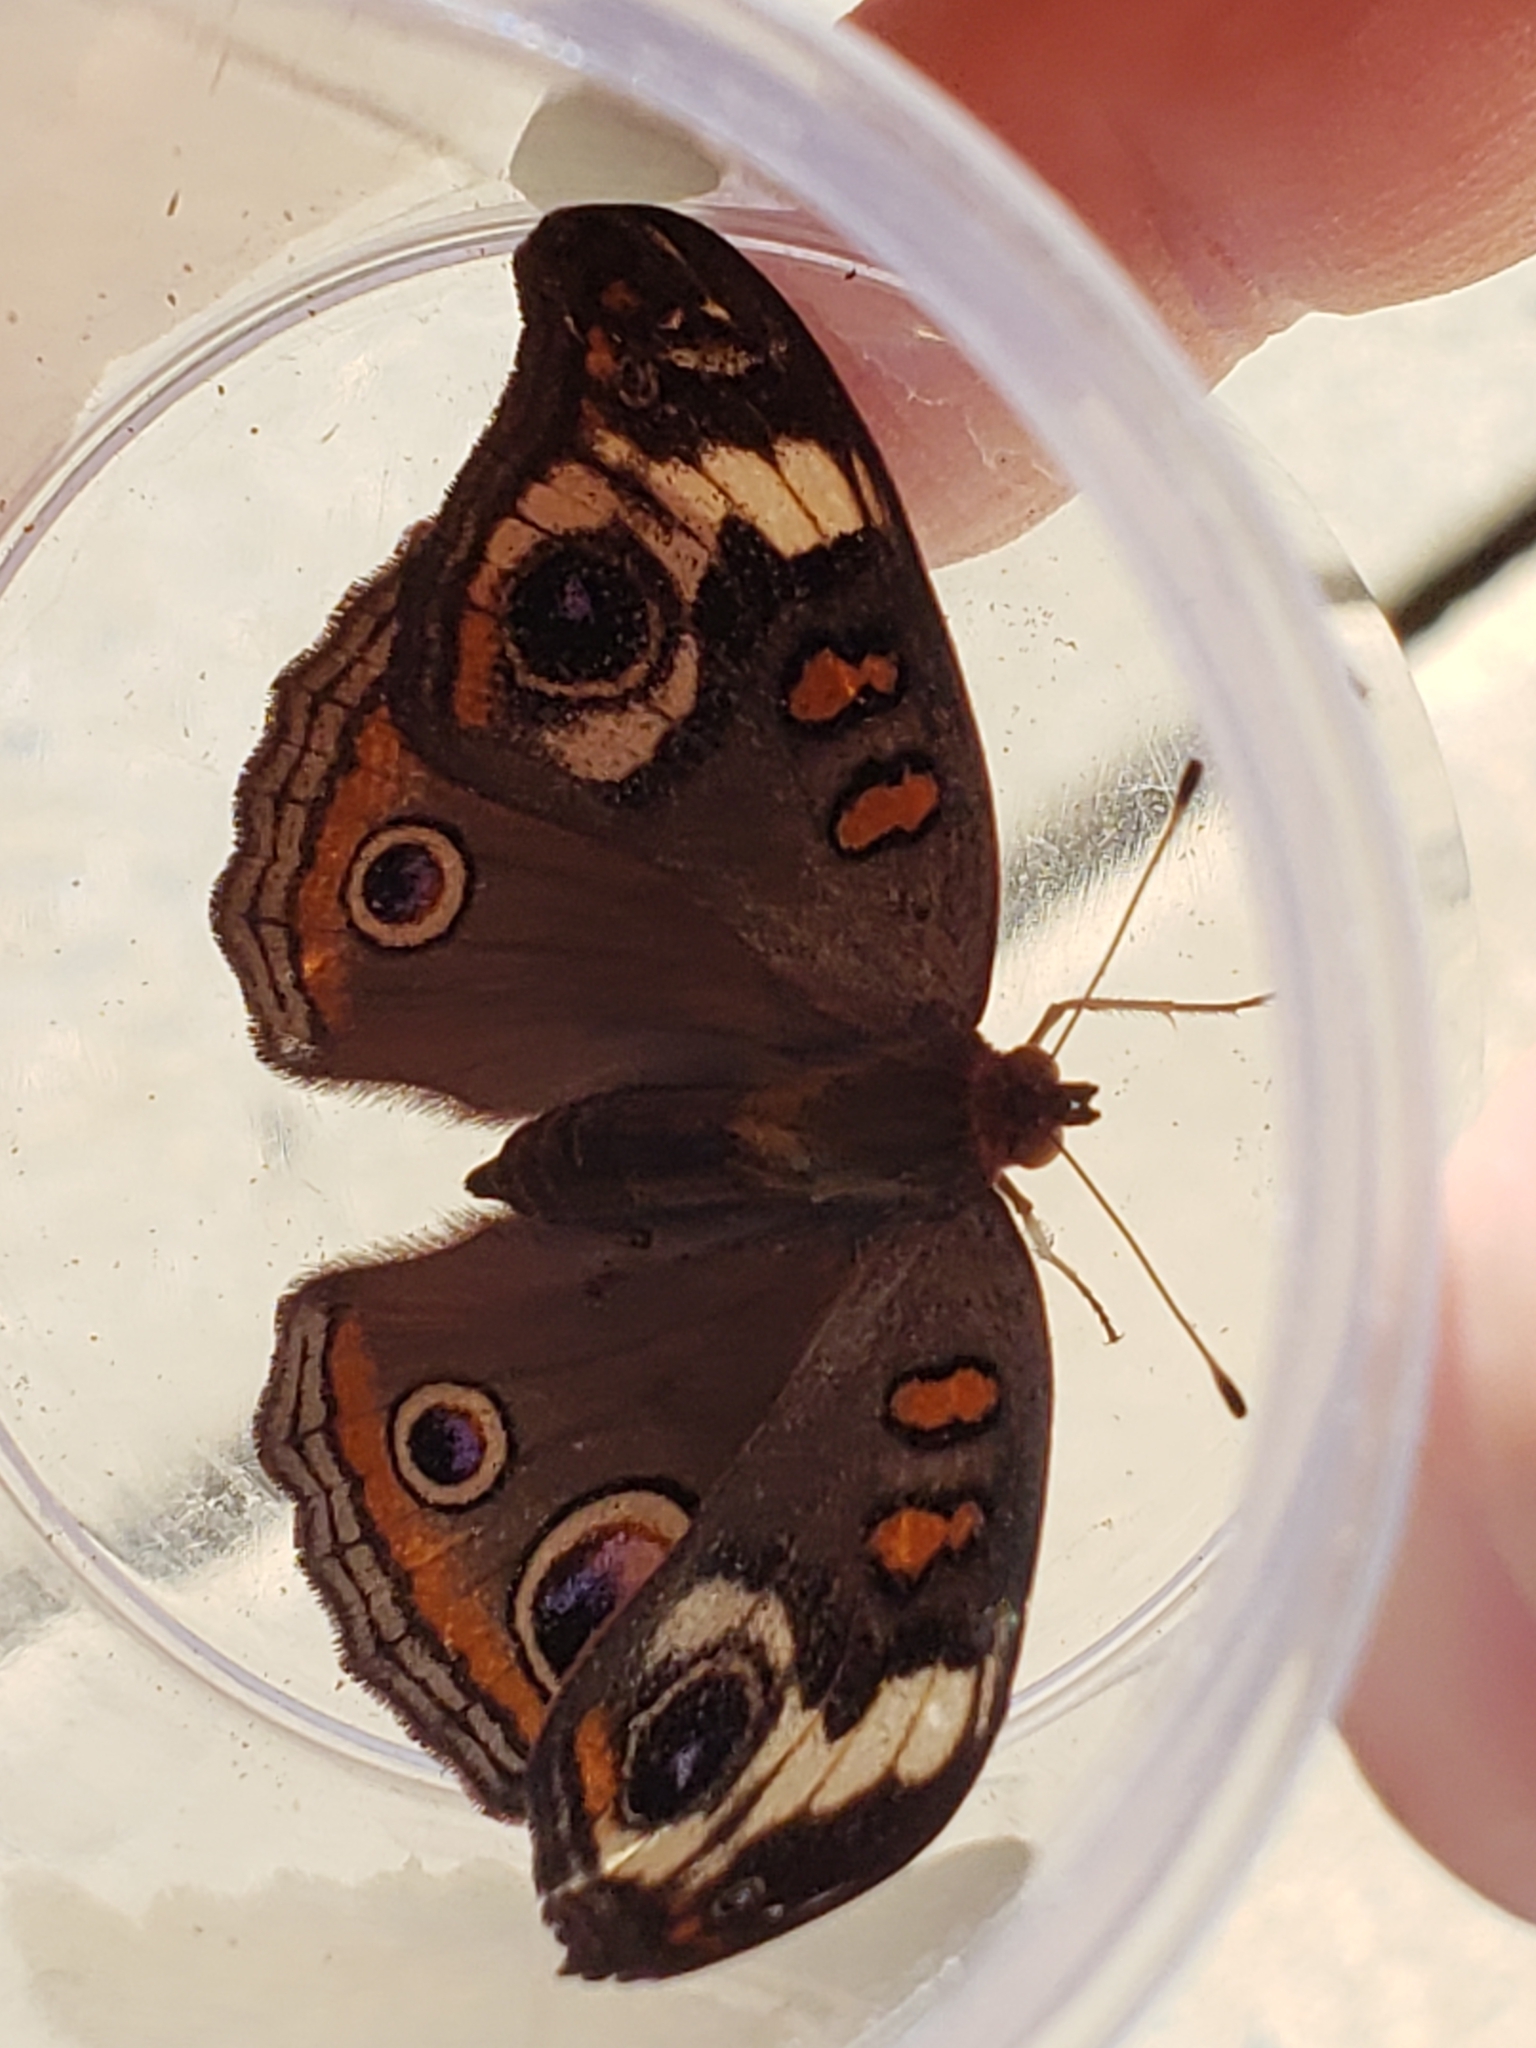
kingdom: Animalia
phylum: Arthropoda
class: Insecta
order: Lepidoptera
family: Nymphalidae
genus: Junonia
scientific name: Junonia coenia
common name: Common buckeye
